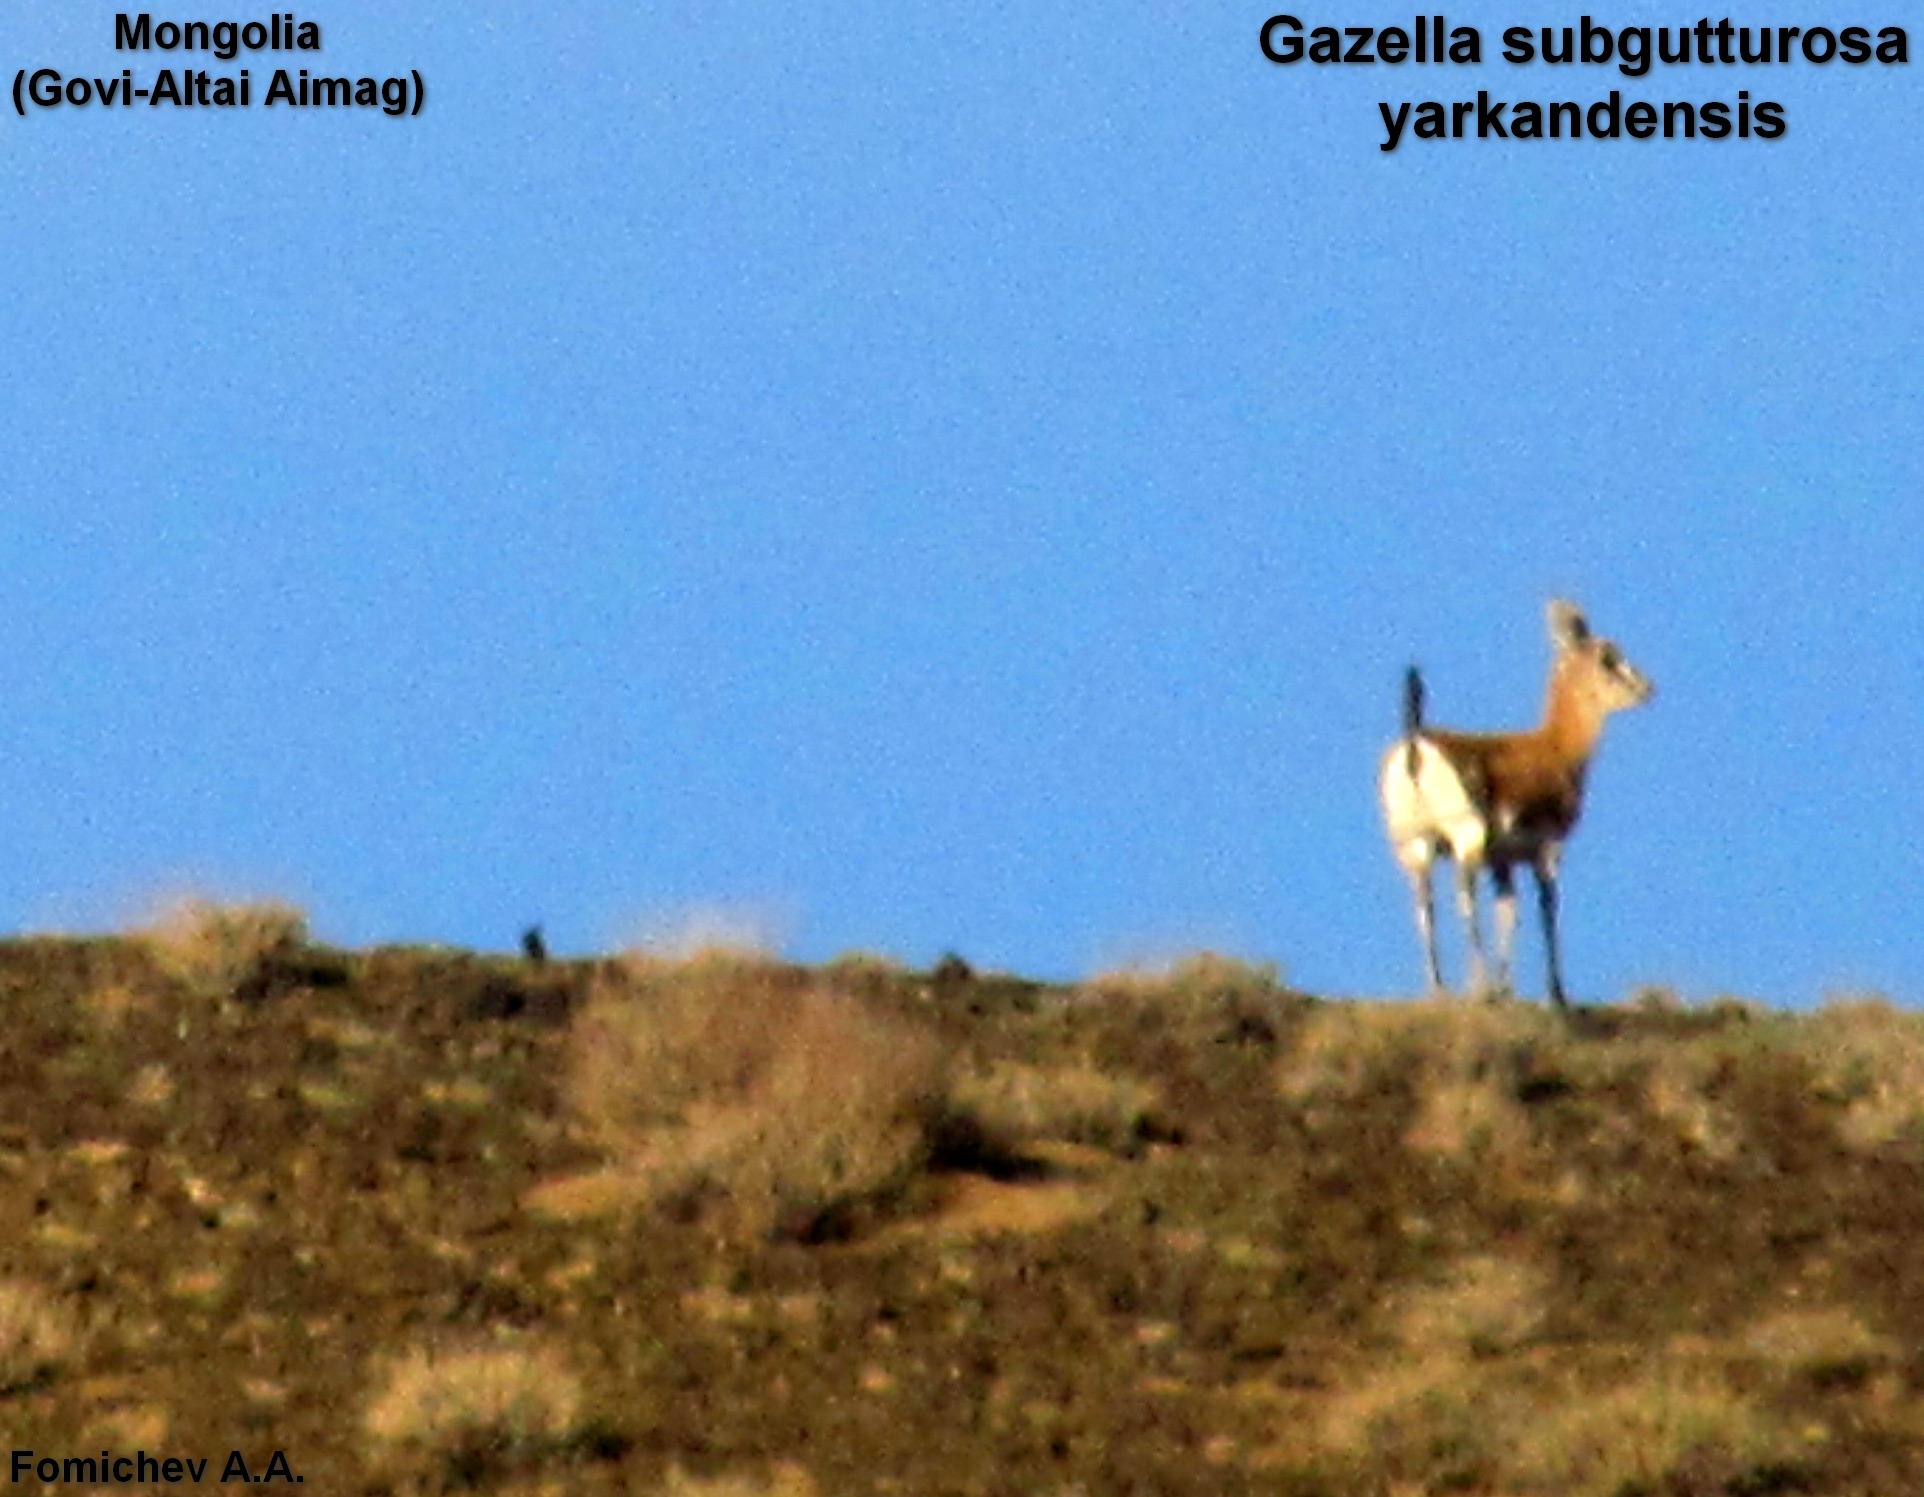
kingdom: Animalia
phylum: Chordata
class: Mammalia
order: Artiodactyla
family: Bovidae
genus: Gazella
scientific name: Gazella subgutturosa
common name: Goitered gazelle
